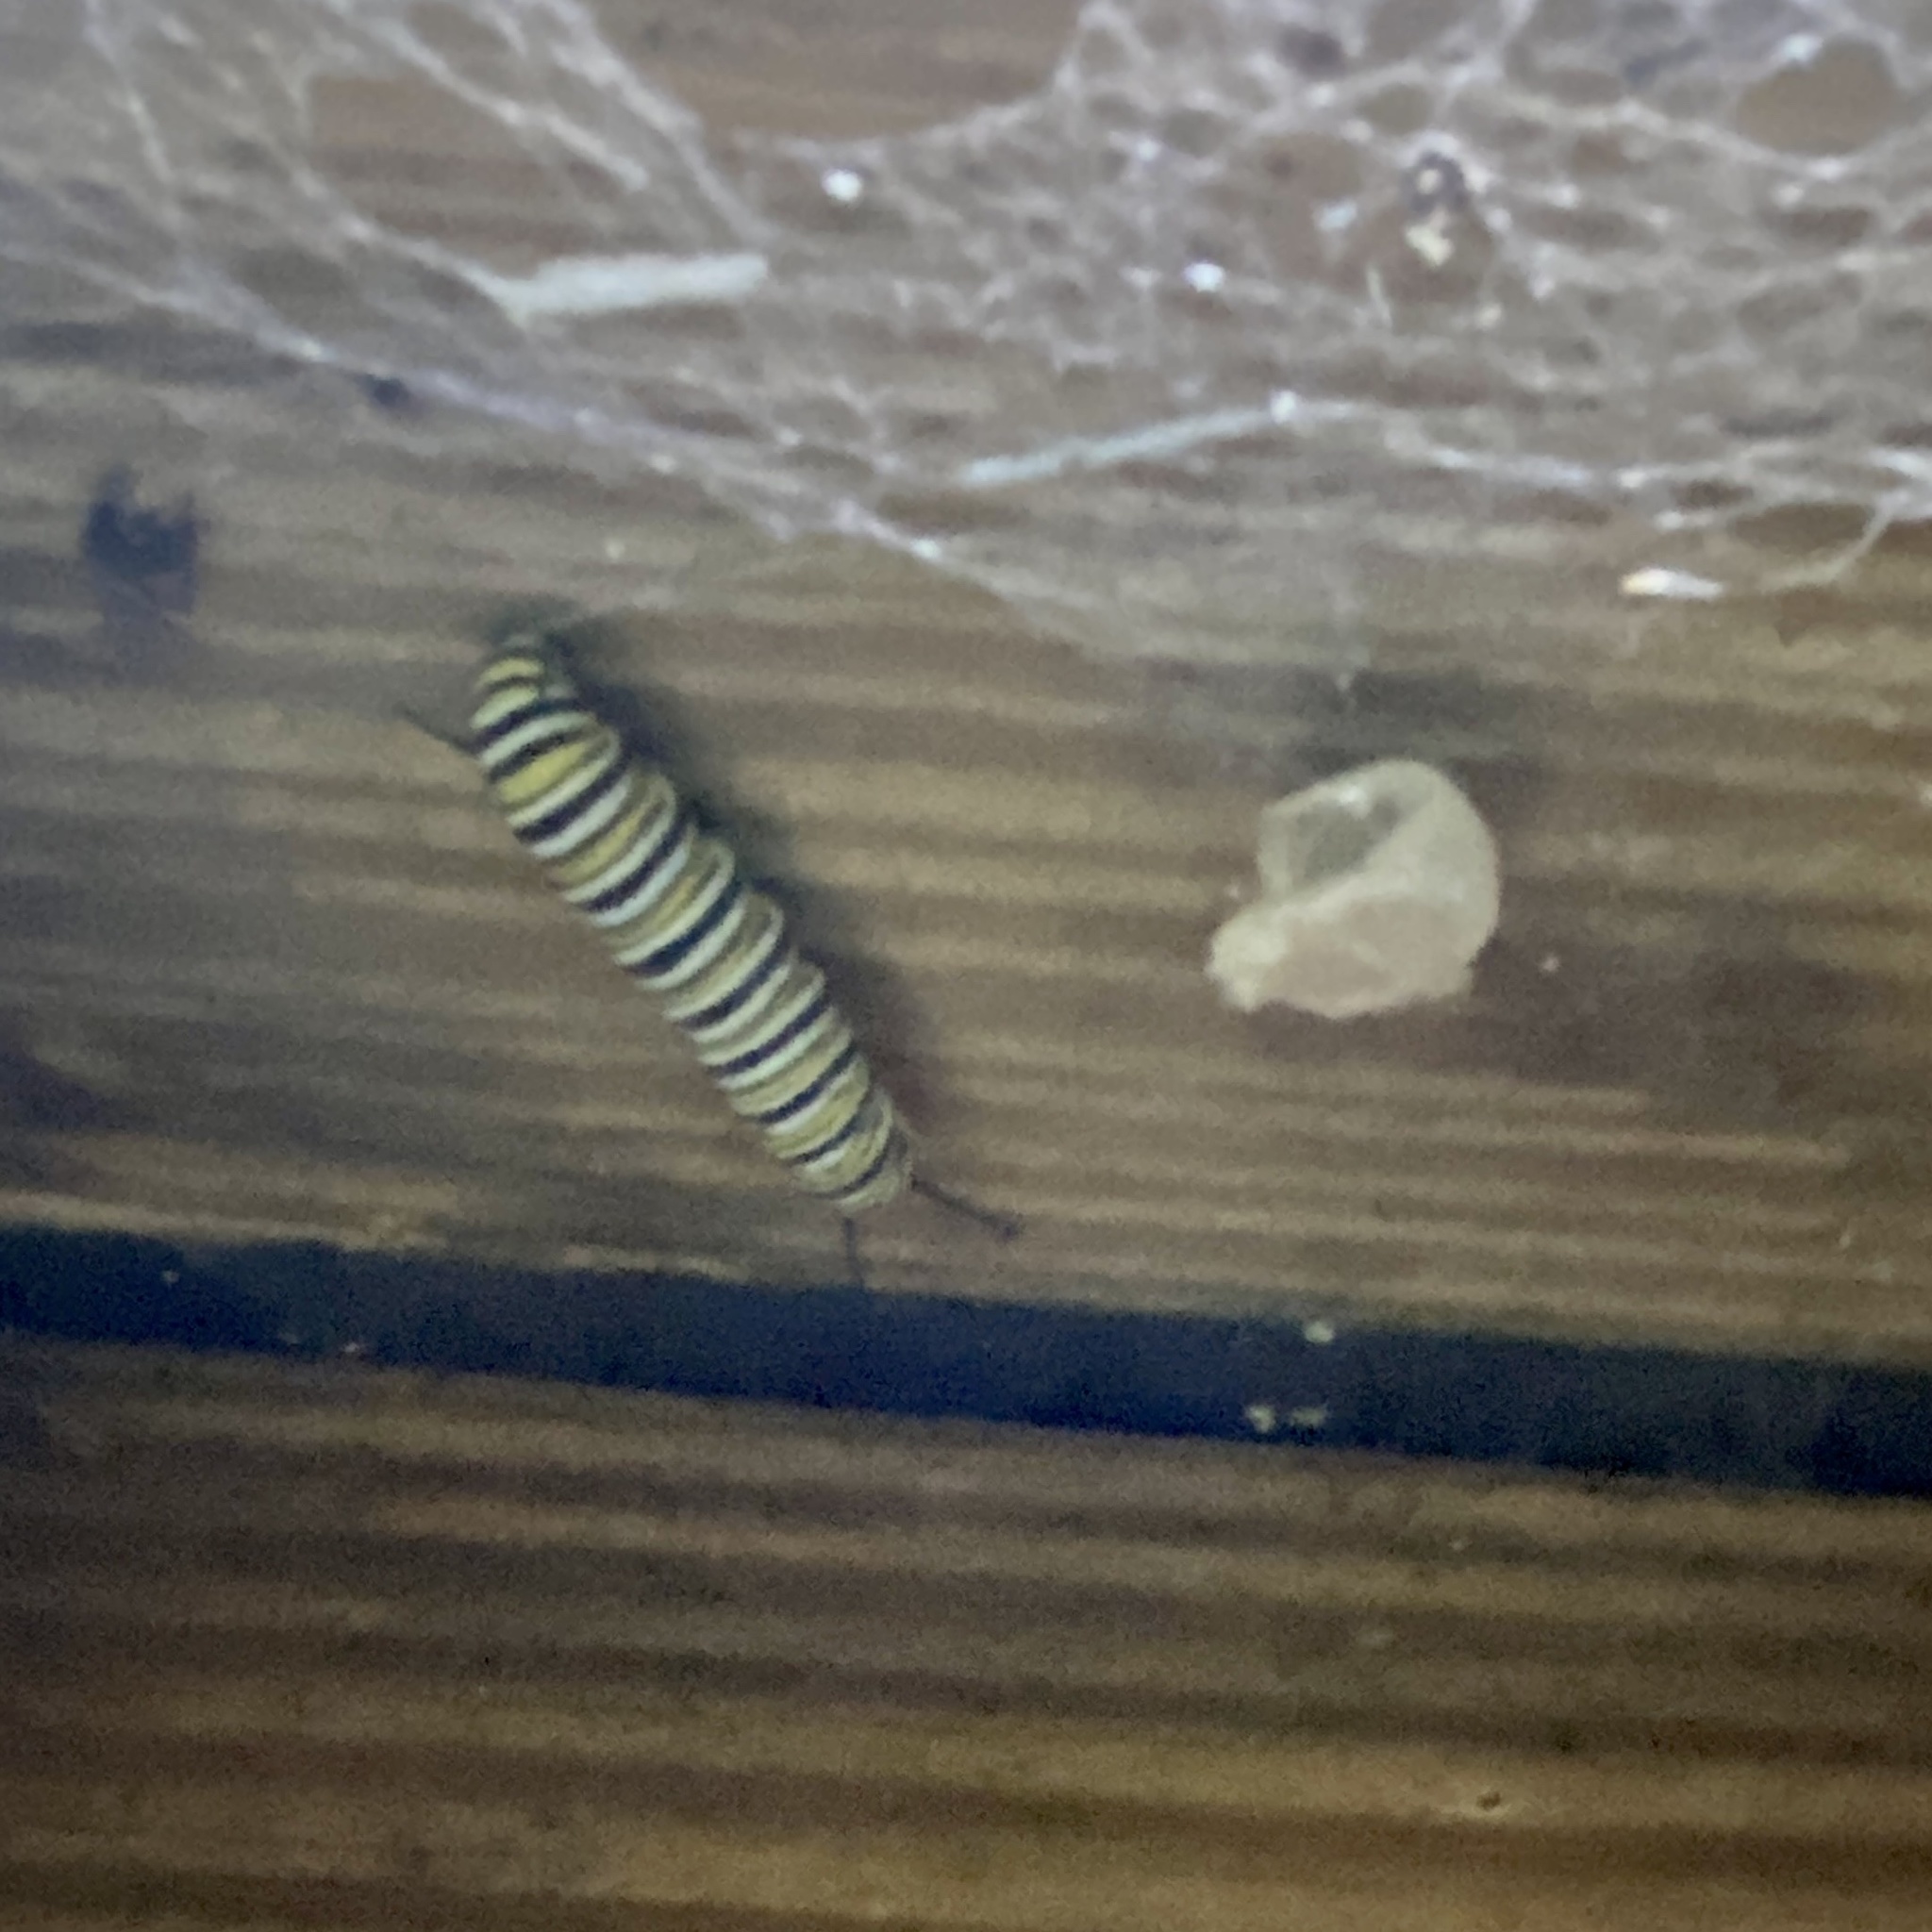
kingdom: Animalia
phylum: Arthropoda
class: Insecta
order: Lepidoptera
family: Nymphalidae
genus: Danaus
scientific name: Danaus plexippus
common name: Monarch
